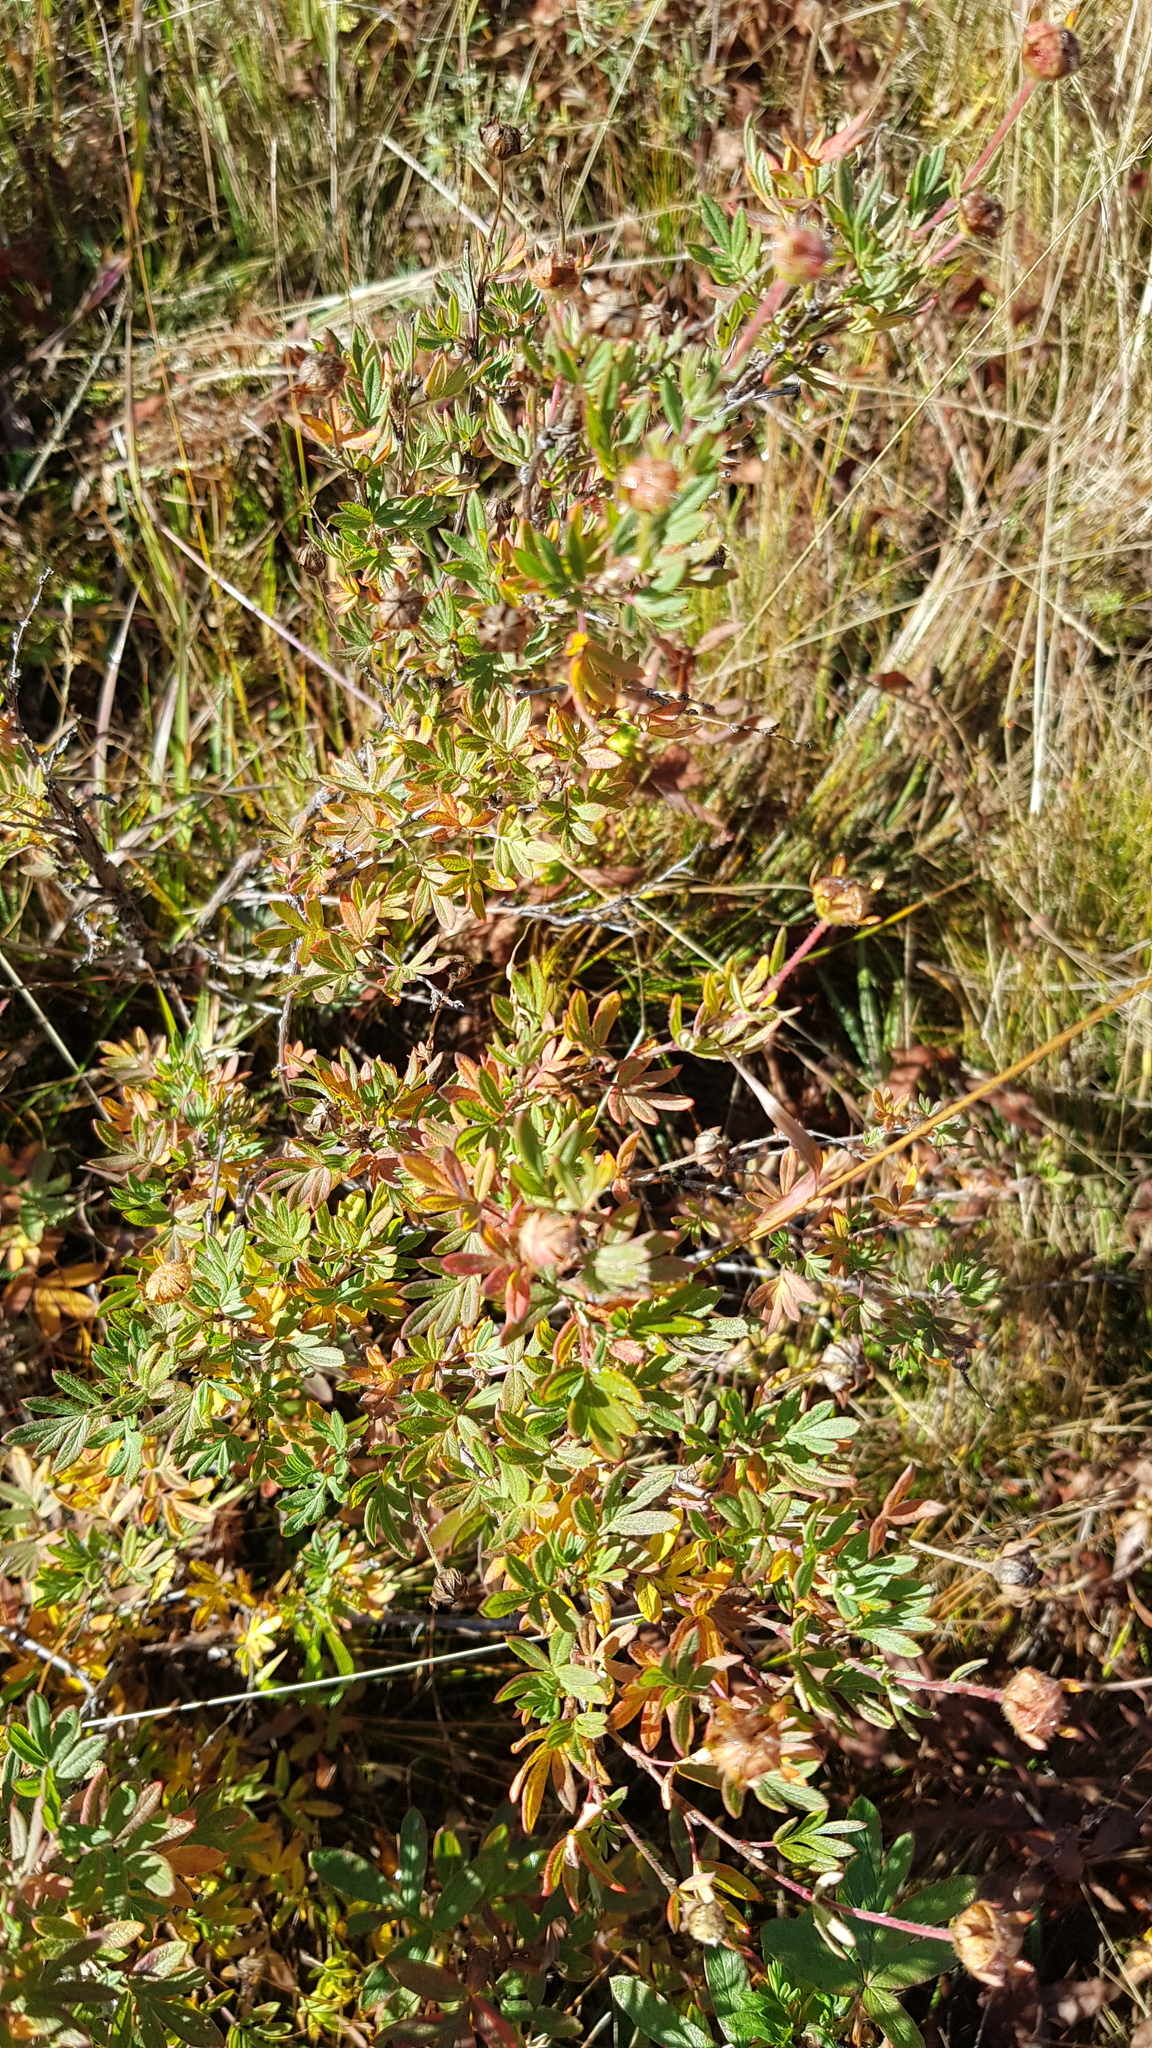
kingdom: Plantae
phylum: Tracheophyta
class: Magnoliopsida
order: Rosales
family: Rosaceae
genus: Dasiphora
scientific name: Dasiphora fruticosa
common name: Shrubby cinquefoil
